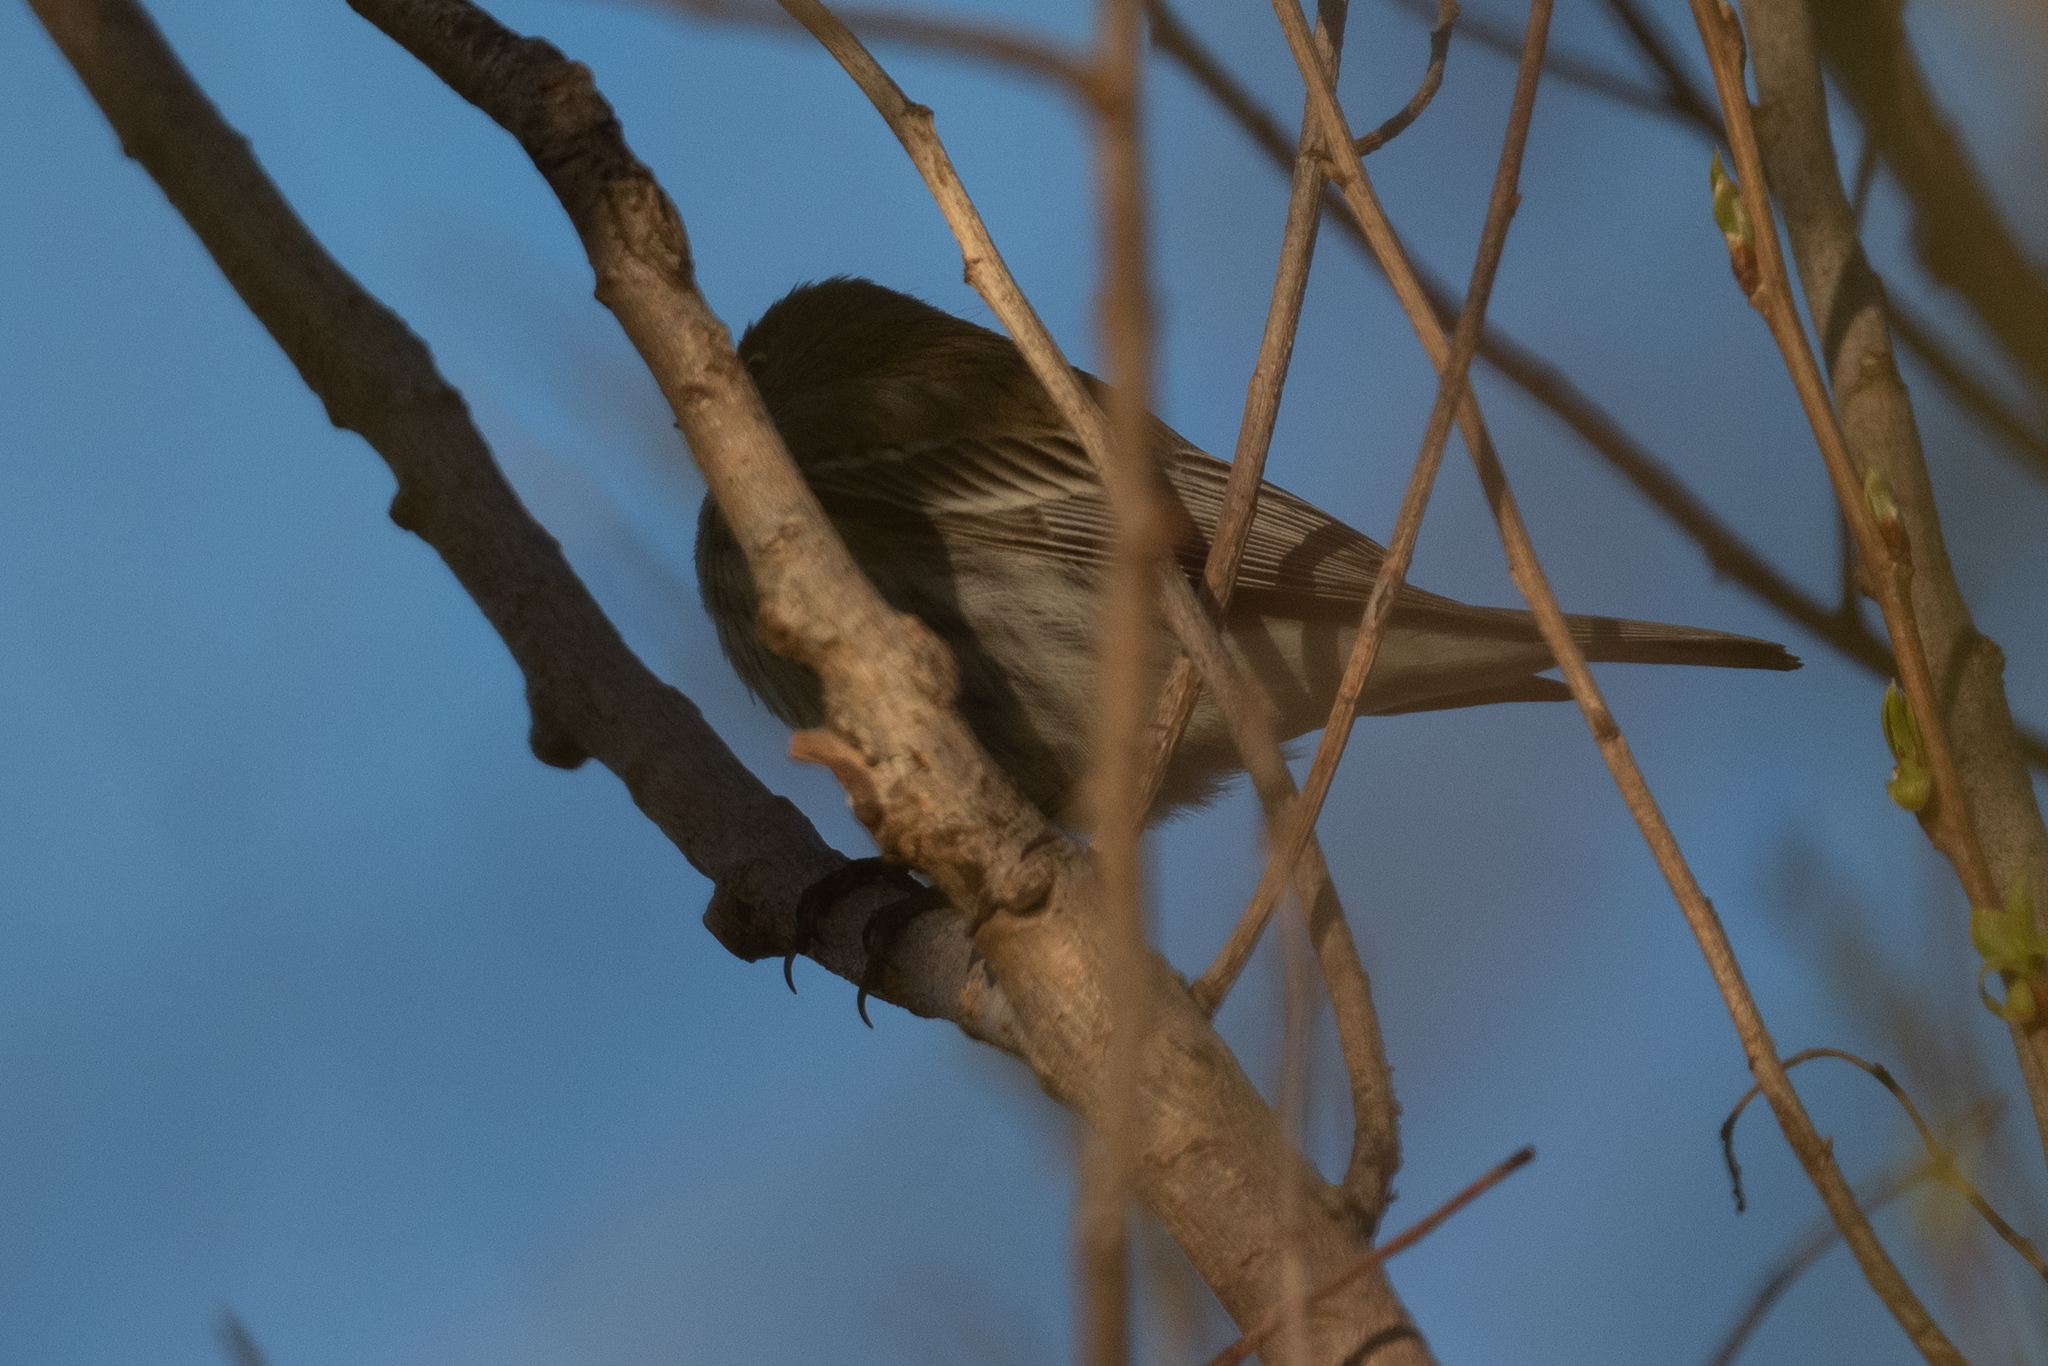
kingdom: Animalia
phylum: Chordata
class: Aves
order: Passeriformes
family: Parulidae
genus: Setophaga
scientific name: Setophaga coronata
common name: Myrtle warbler
